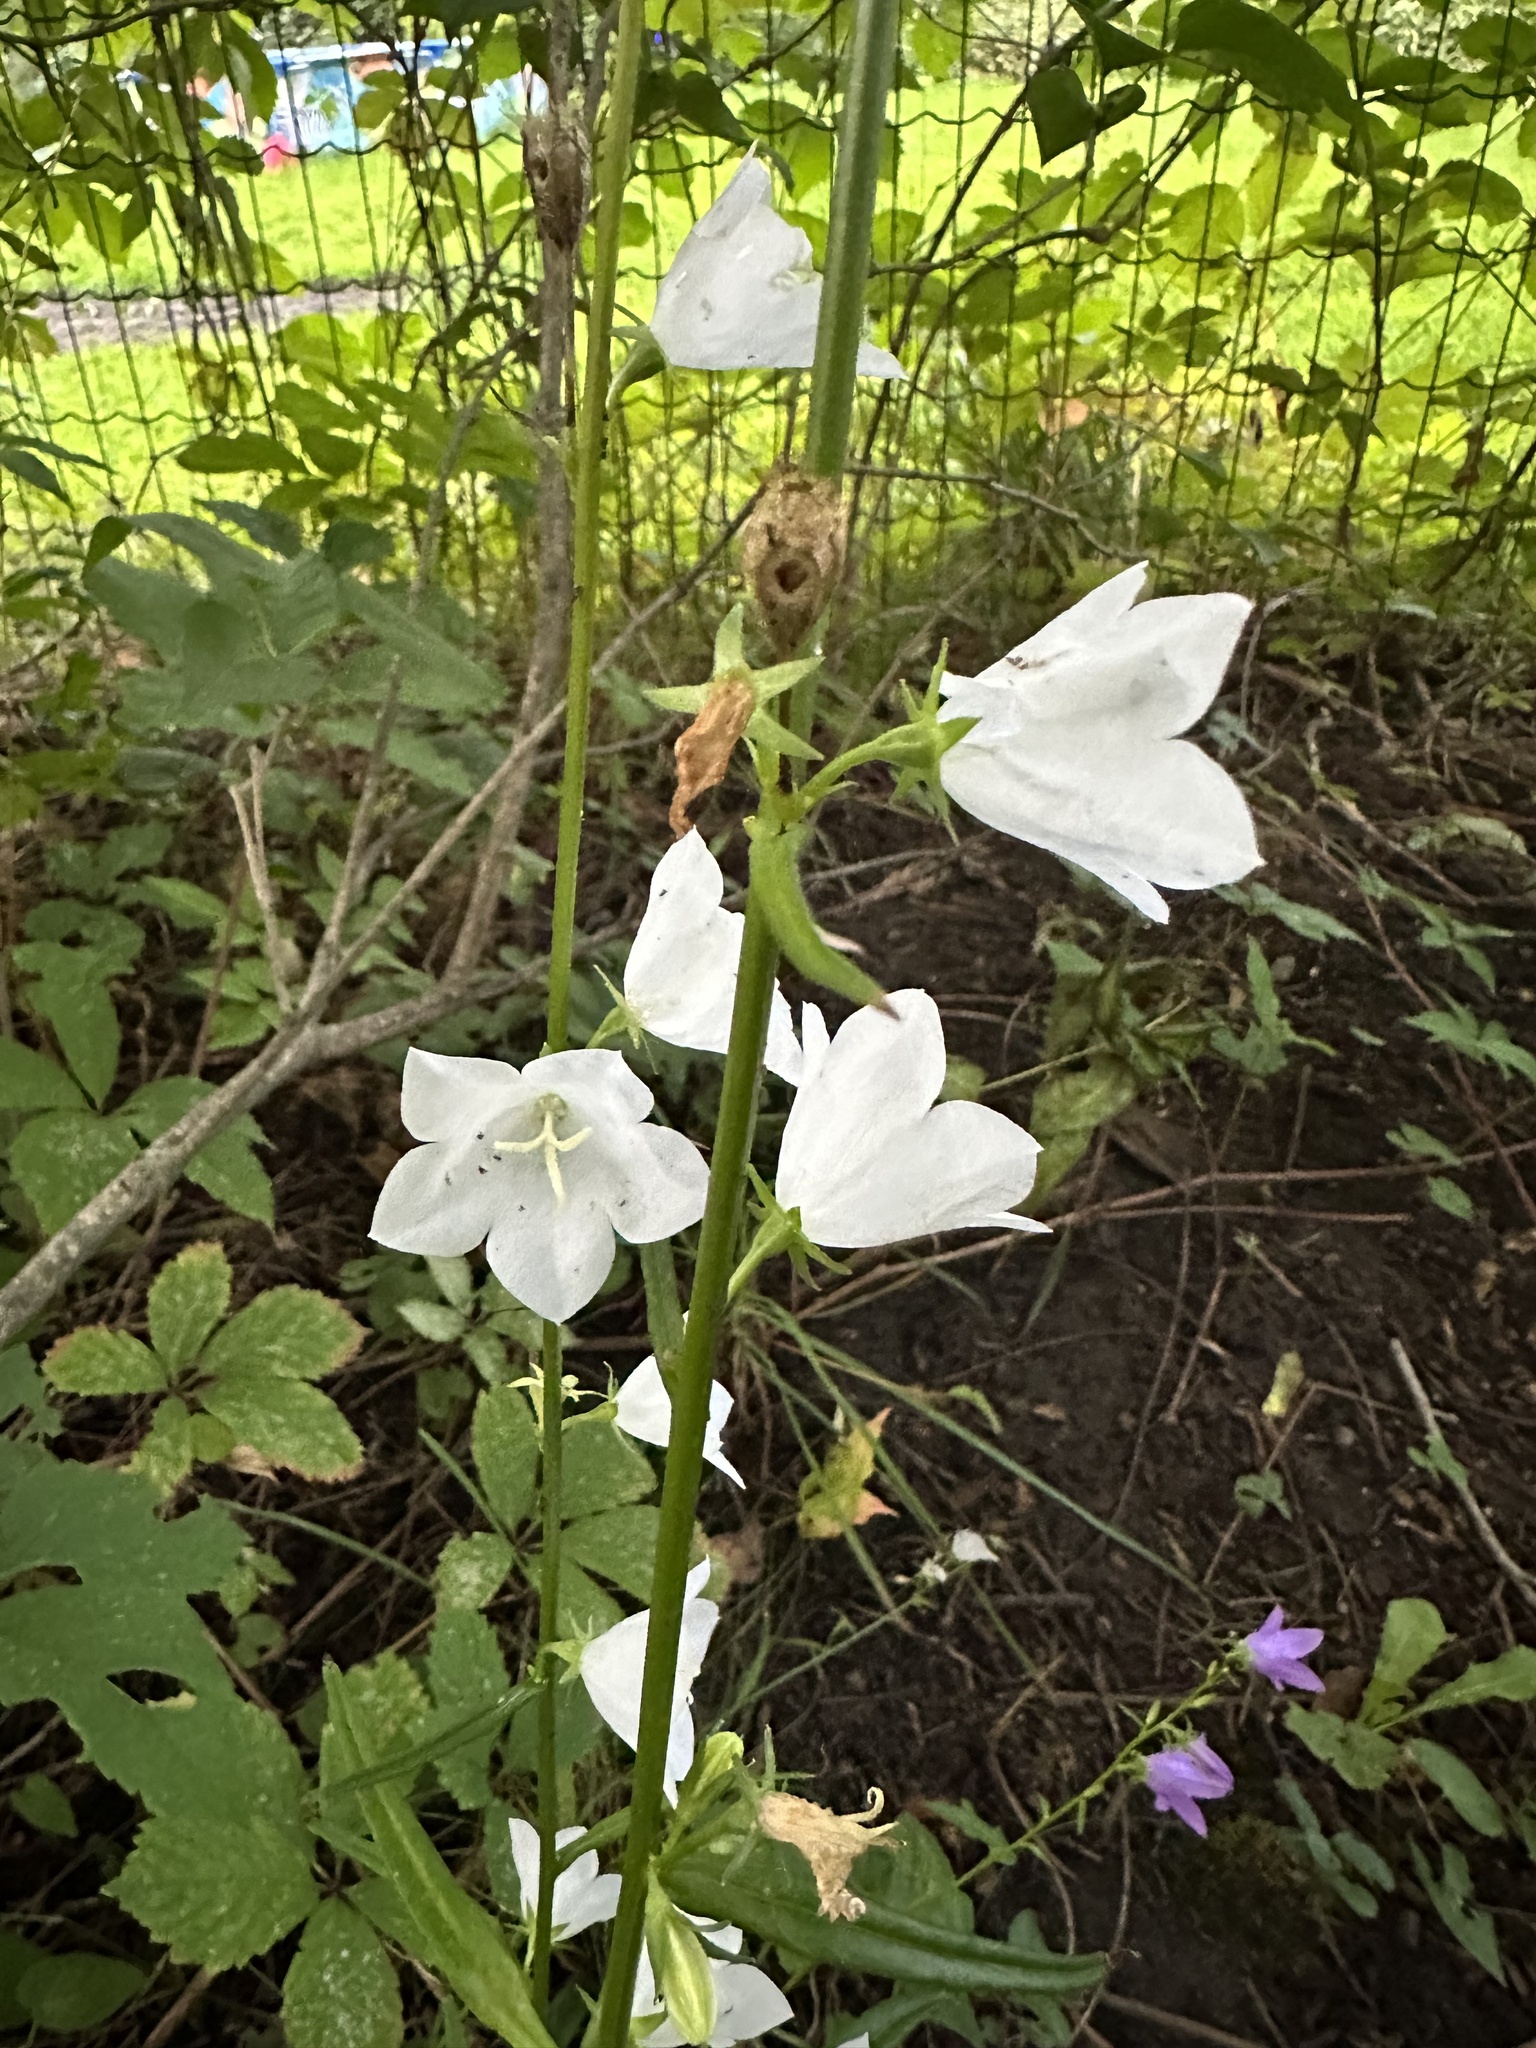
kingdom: Plantae
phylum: Tracheophyta
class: Magnoliopsida
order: Asterales
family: Campanulaceae
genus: Campanula
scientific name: Campanula persicifolia
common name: Peach-leaved bellflower
